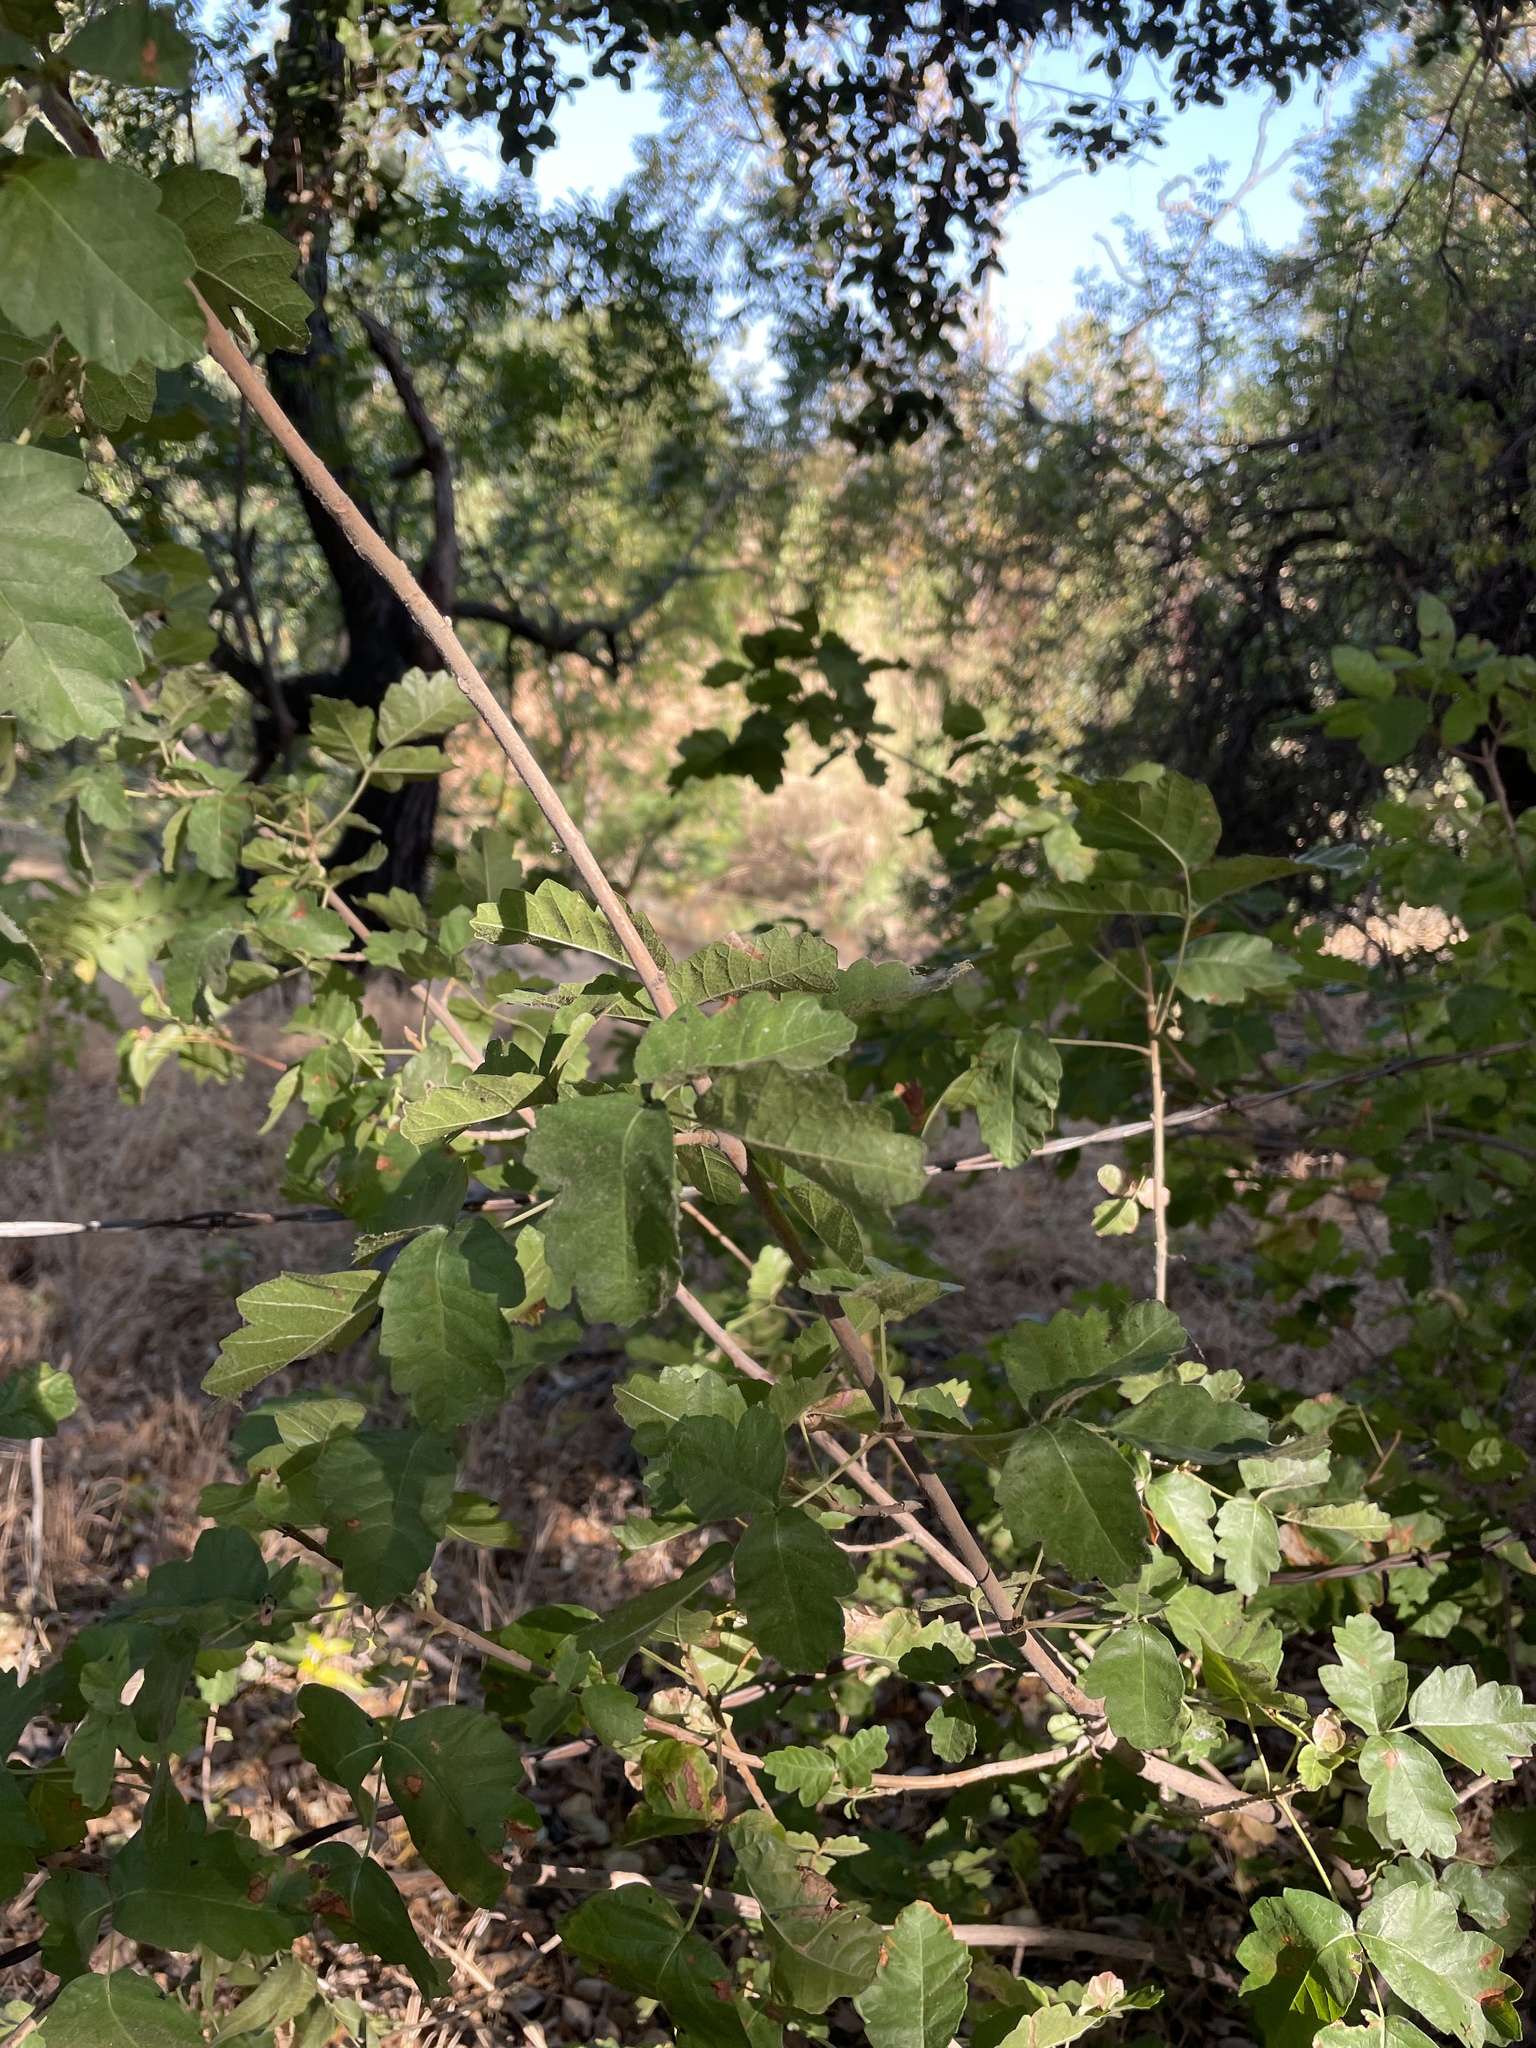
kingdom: Plantae
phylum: Tracheophyta
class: Magnoliopsida
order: Sapindales
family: Anacardiaceae
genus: Toxicodendron
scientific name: Toxicodendron diversilobum
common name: Pacific poison-oak
